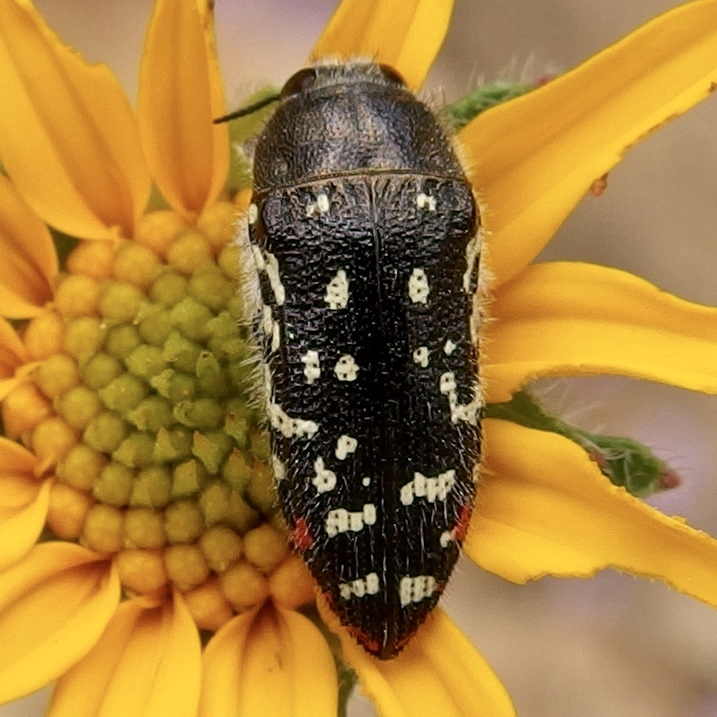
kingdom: Animalia
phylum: Arthropoda
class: Insecta
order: Coleoptera
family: Buprestidae
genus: Acmaeodera
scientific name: Acmaeodera rubronotata
